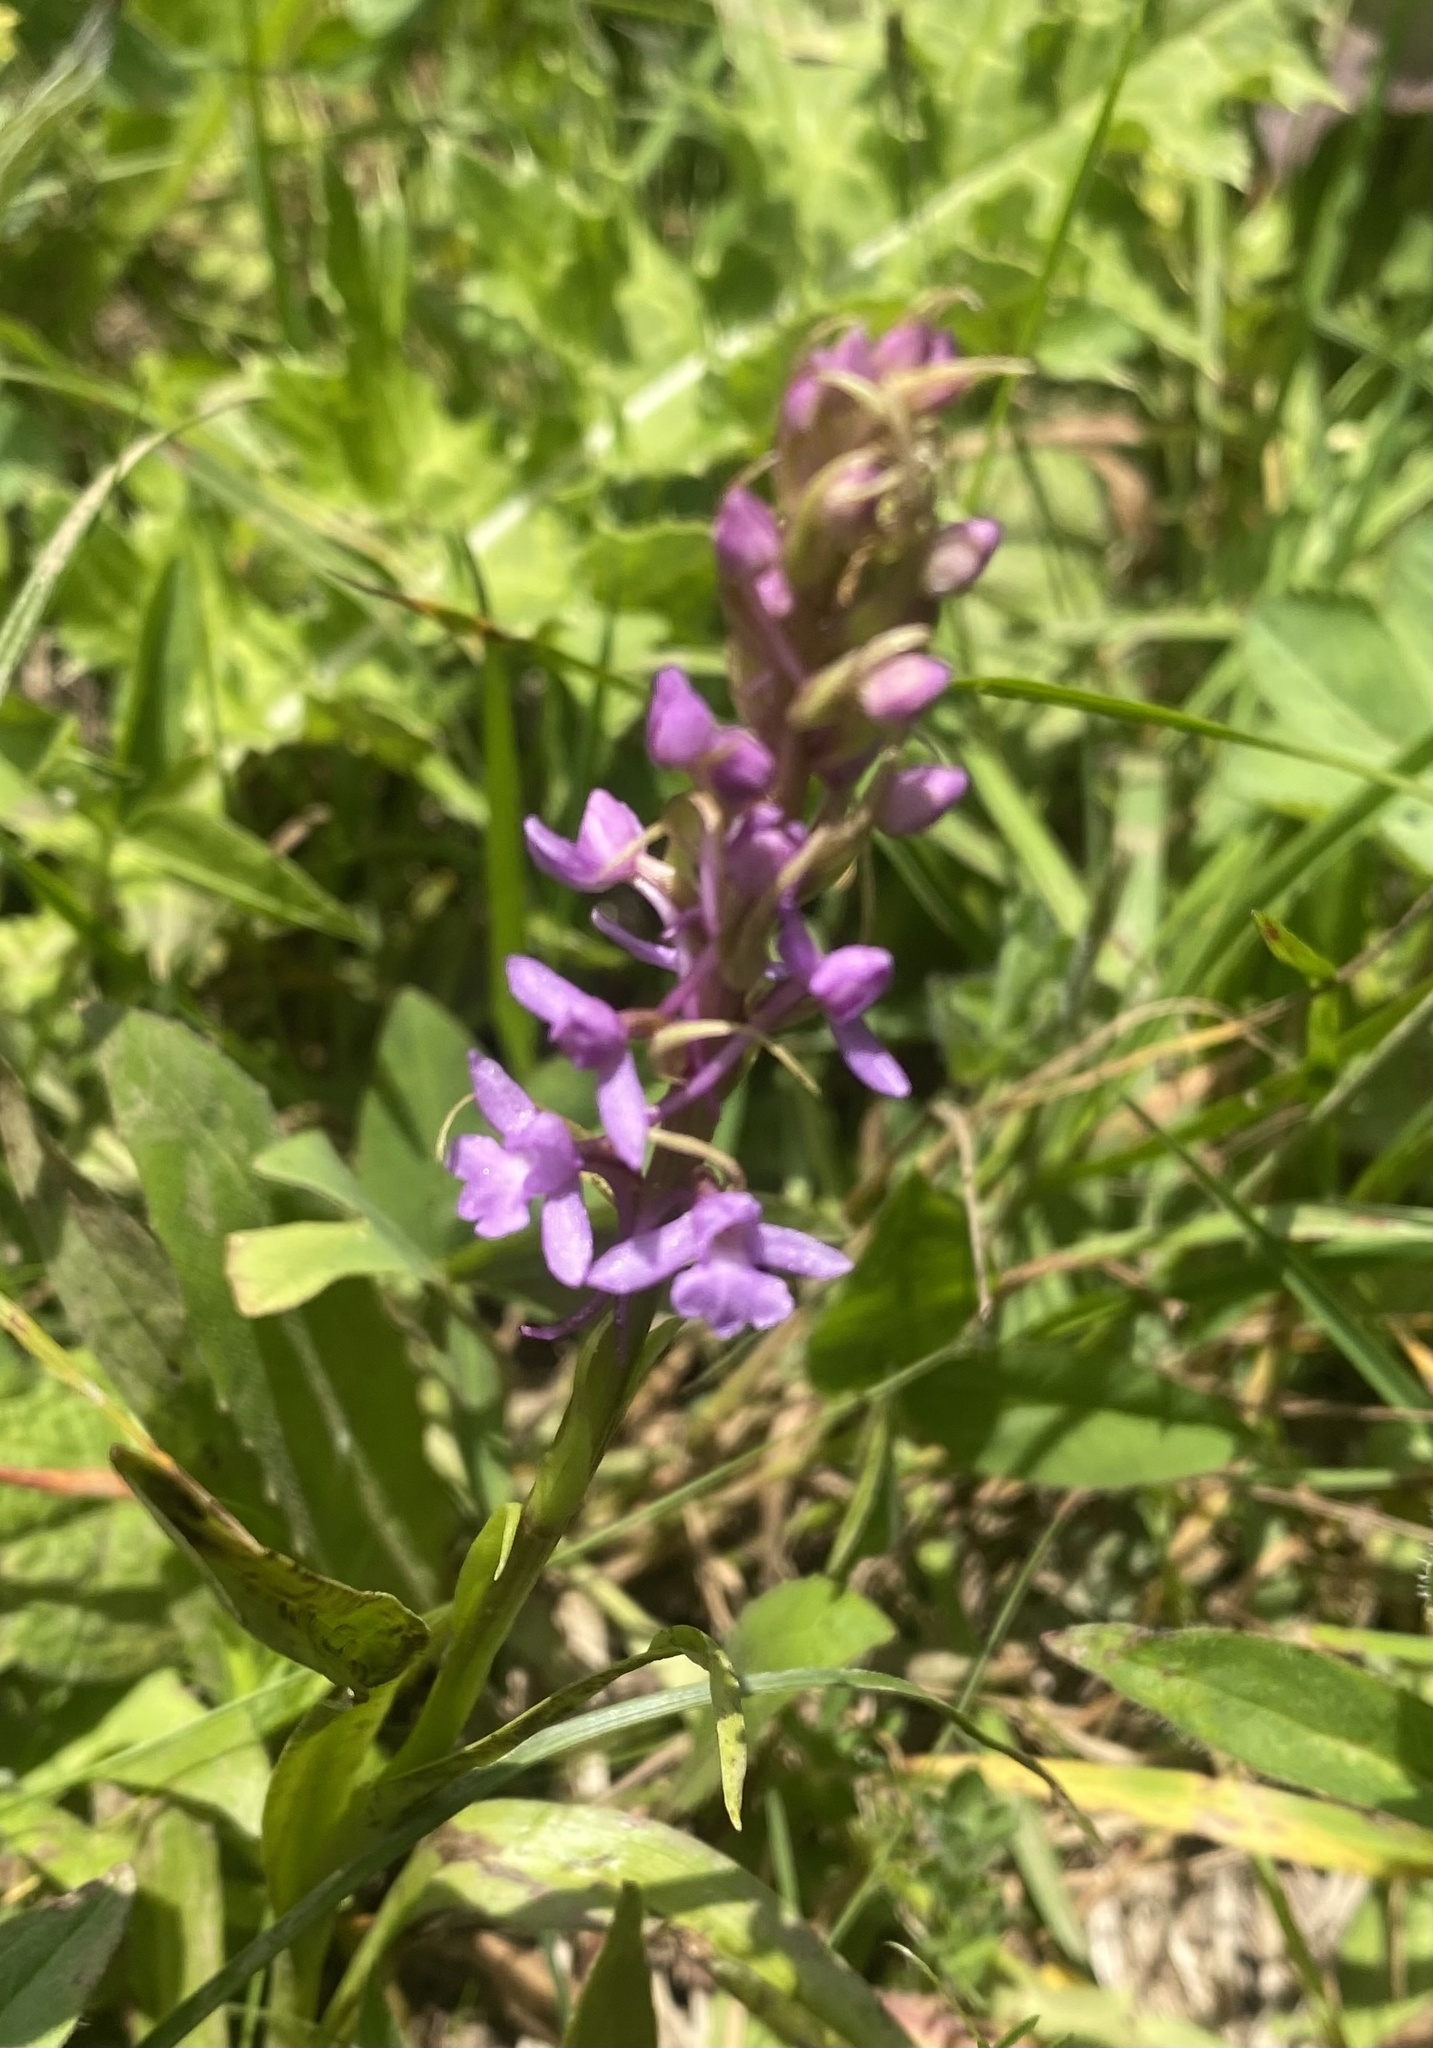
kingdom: Plantae
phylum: Tracheophyta
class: Liliopsida
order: Asparagales
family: Orchidaceae
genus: Gymnadenia
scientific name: Gymnadenia conopsea
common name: Fragrant orchid
